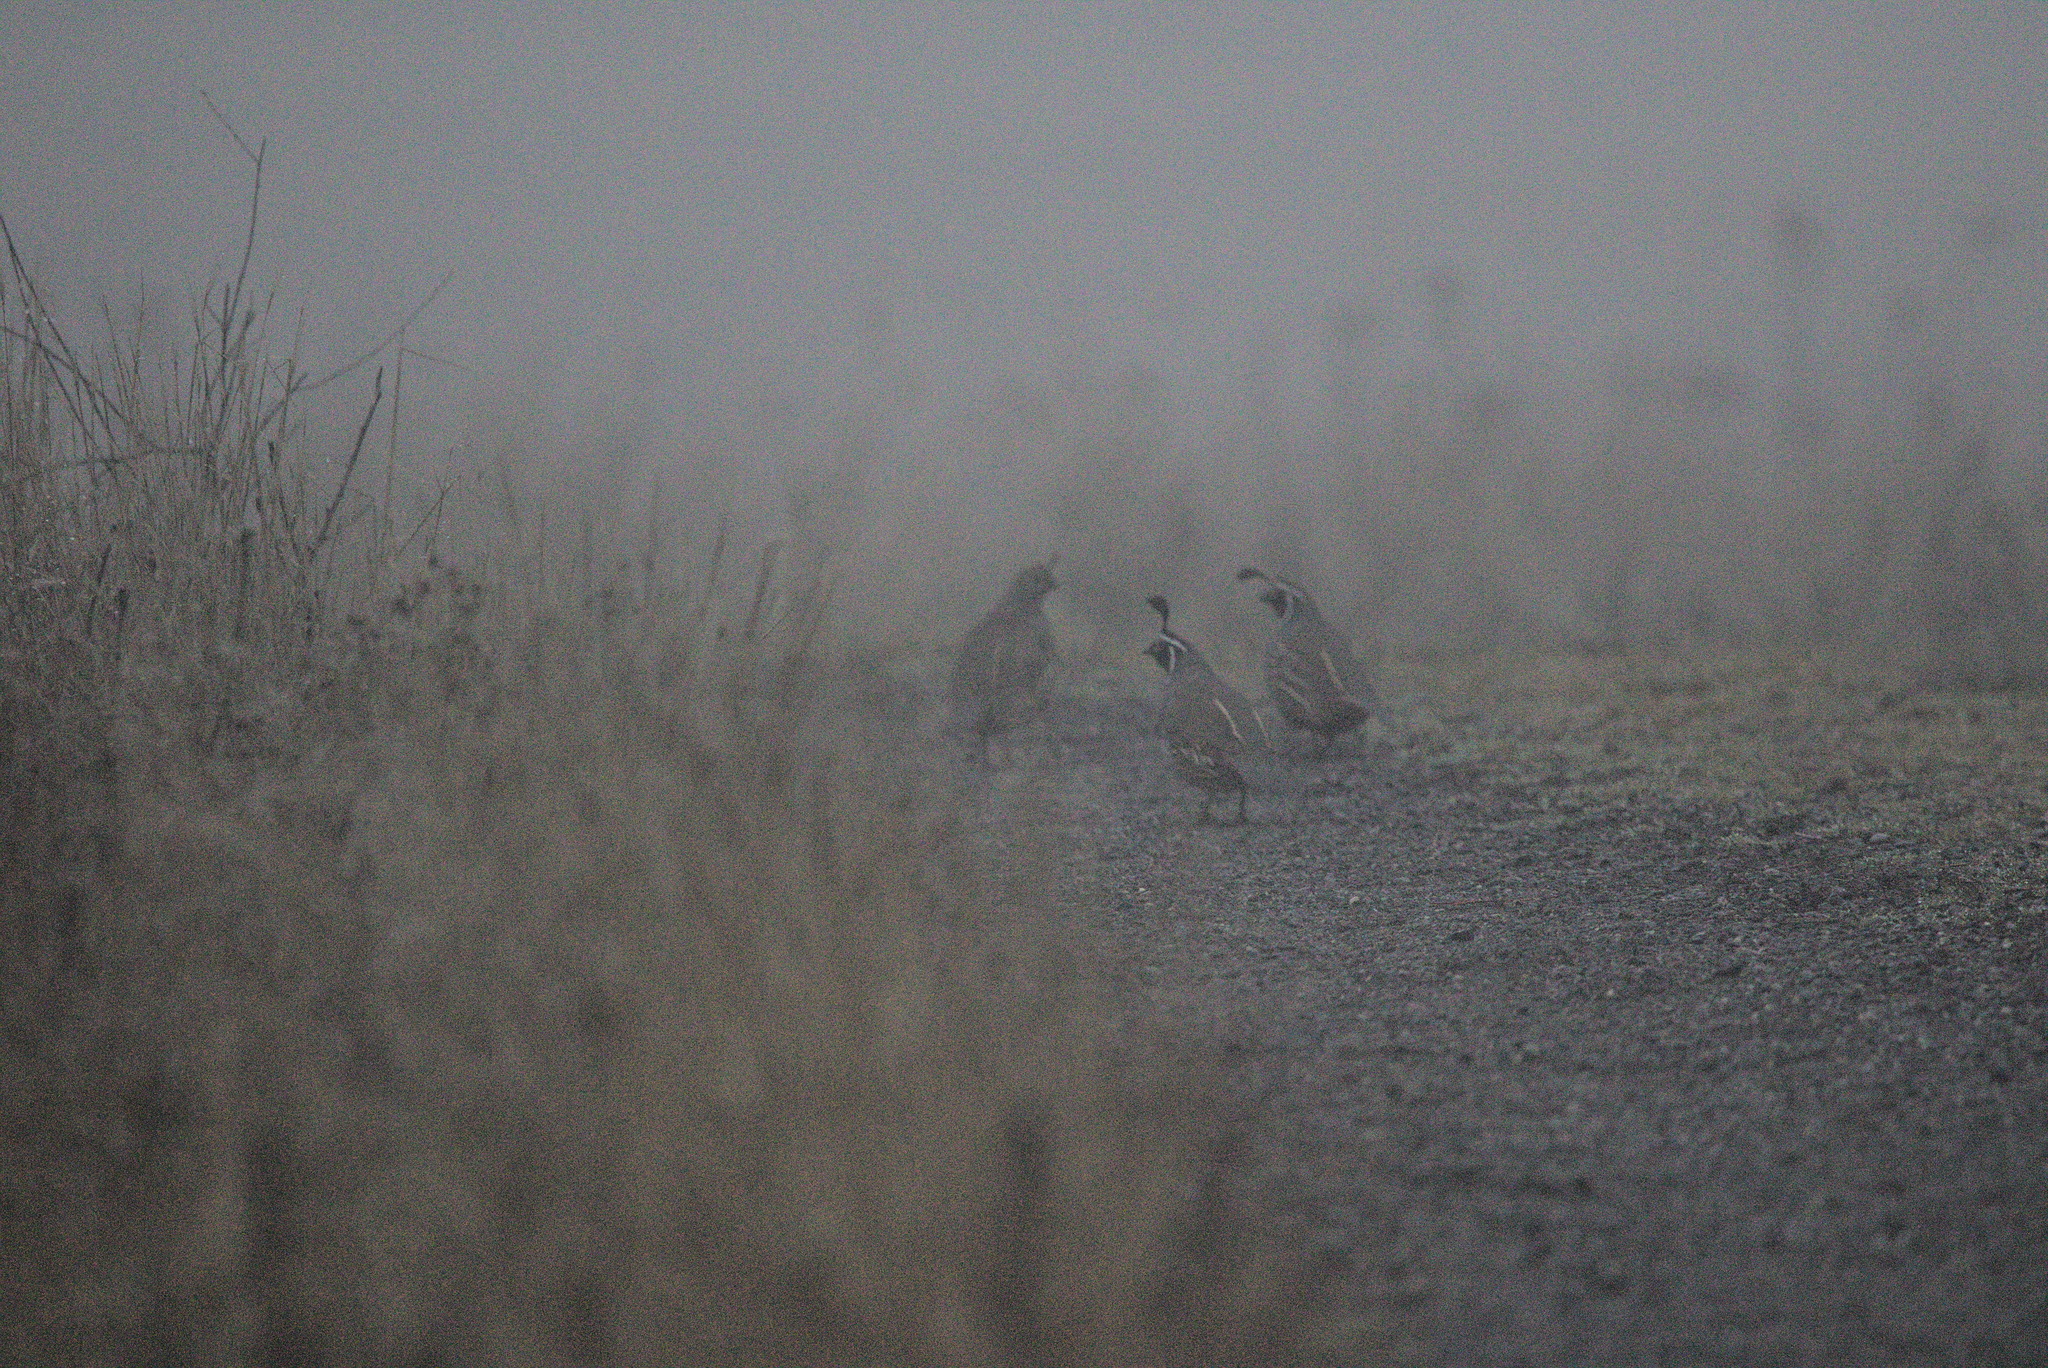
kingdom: Animalia
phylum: Chordata
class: Aves
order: Galliformes
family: Odontophoridae
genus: Callipepla
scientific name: Callipepla californica
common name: California quail
